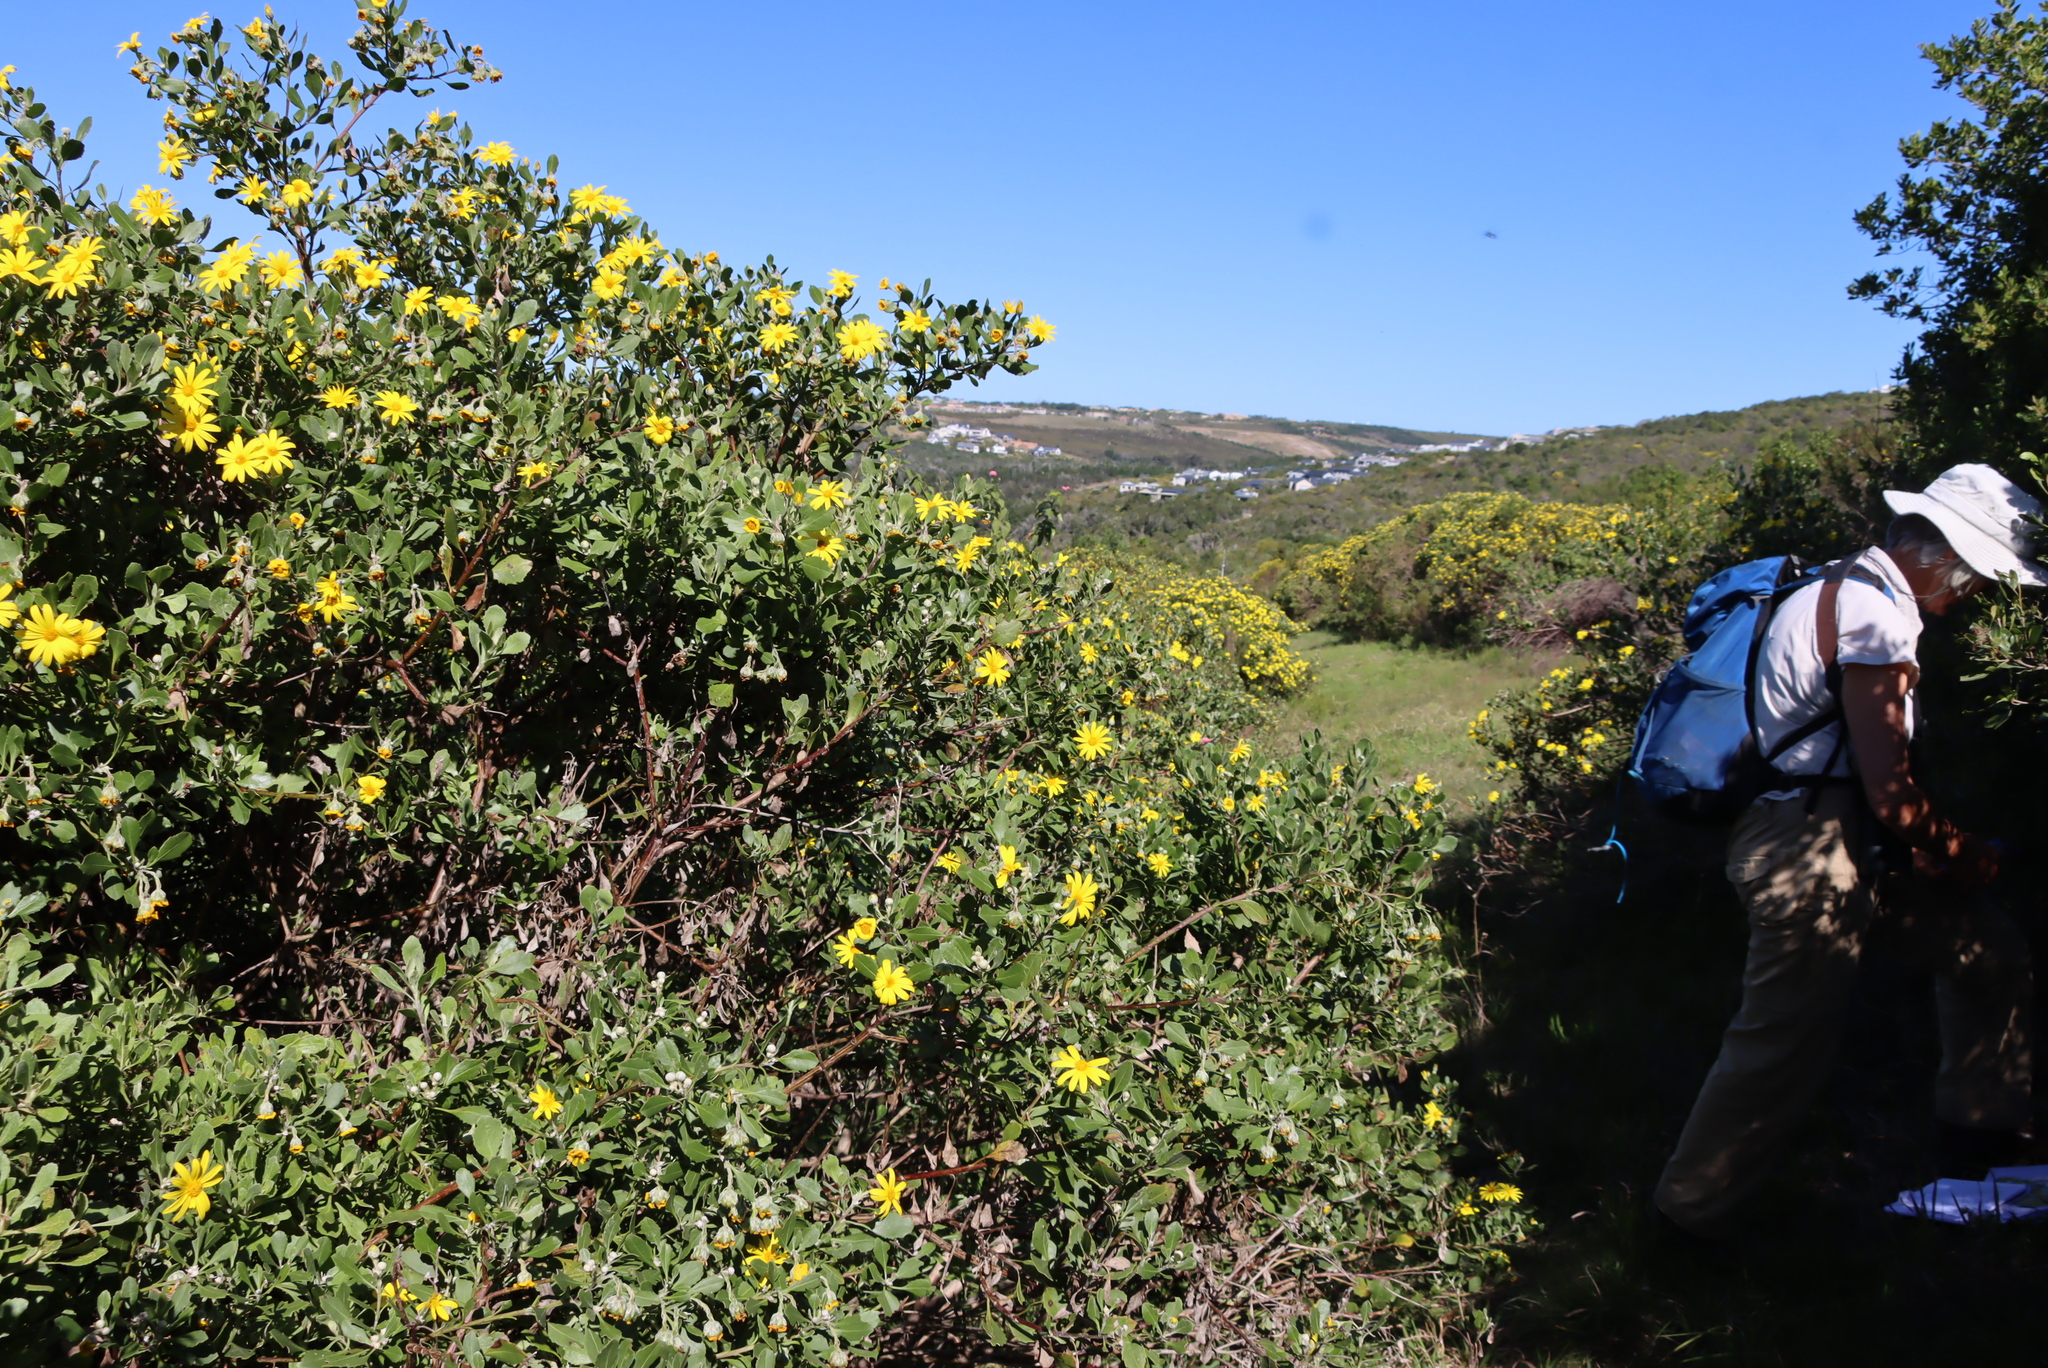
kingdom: Plantae
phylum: Tracheophyta
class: Magnoliopsida
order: Asterales
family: Asteraceae
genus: Osteospermum
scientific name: Osteospermum moniliferum
